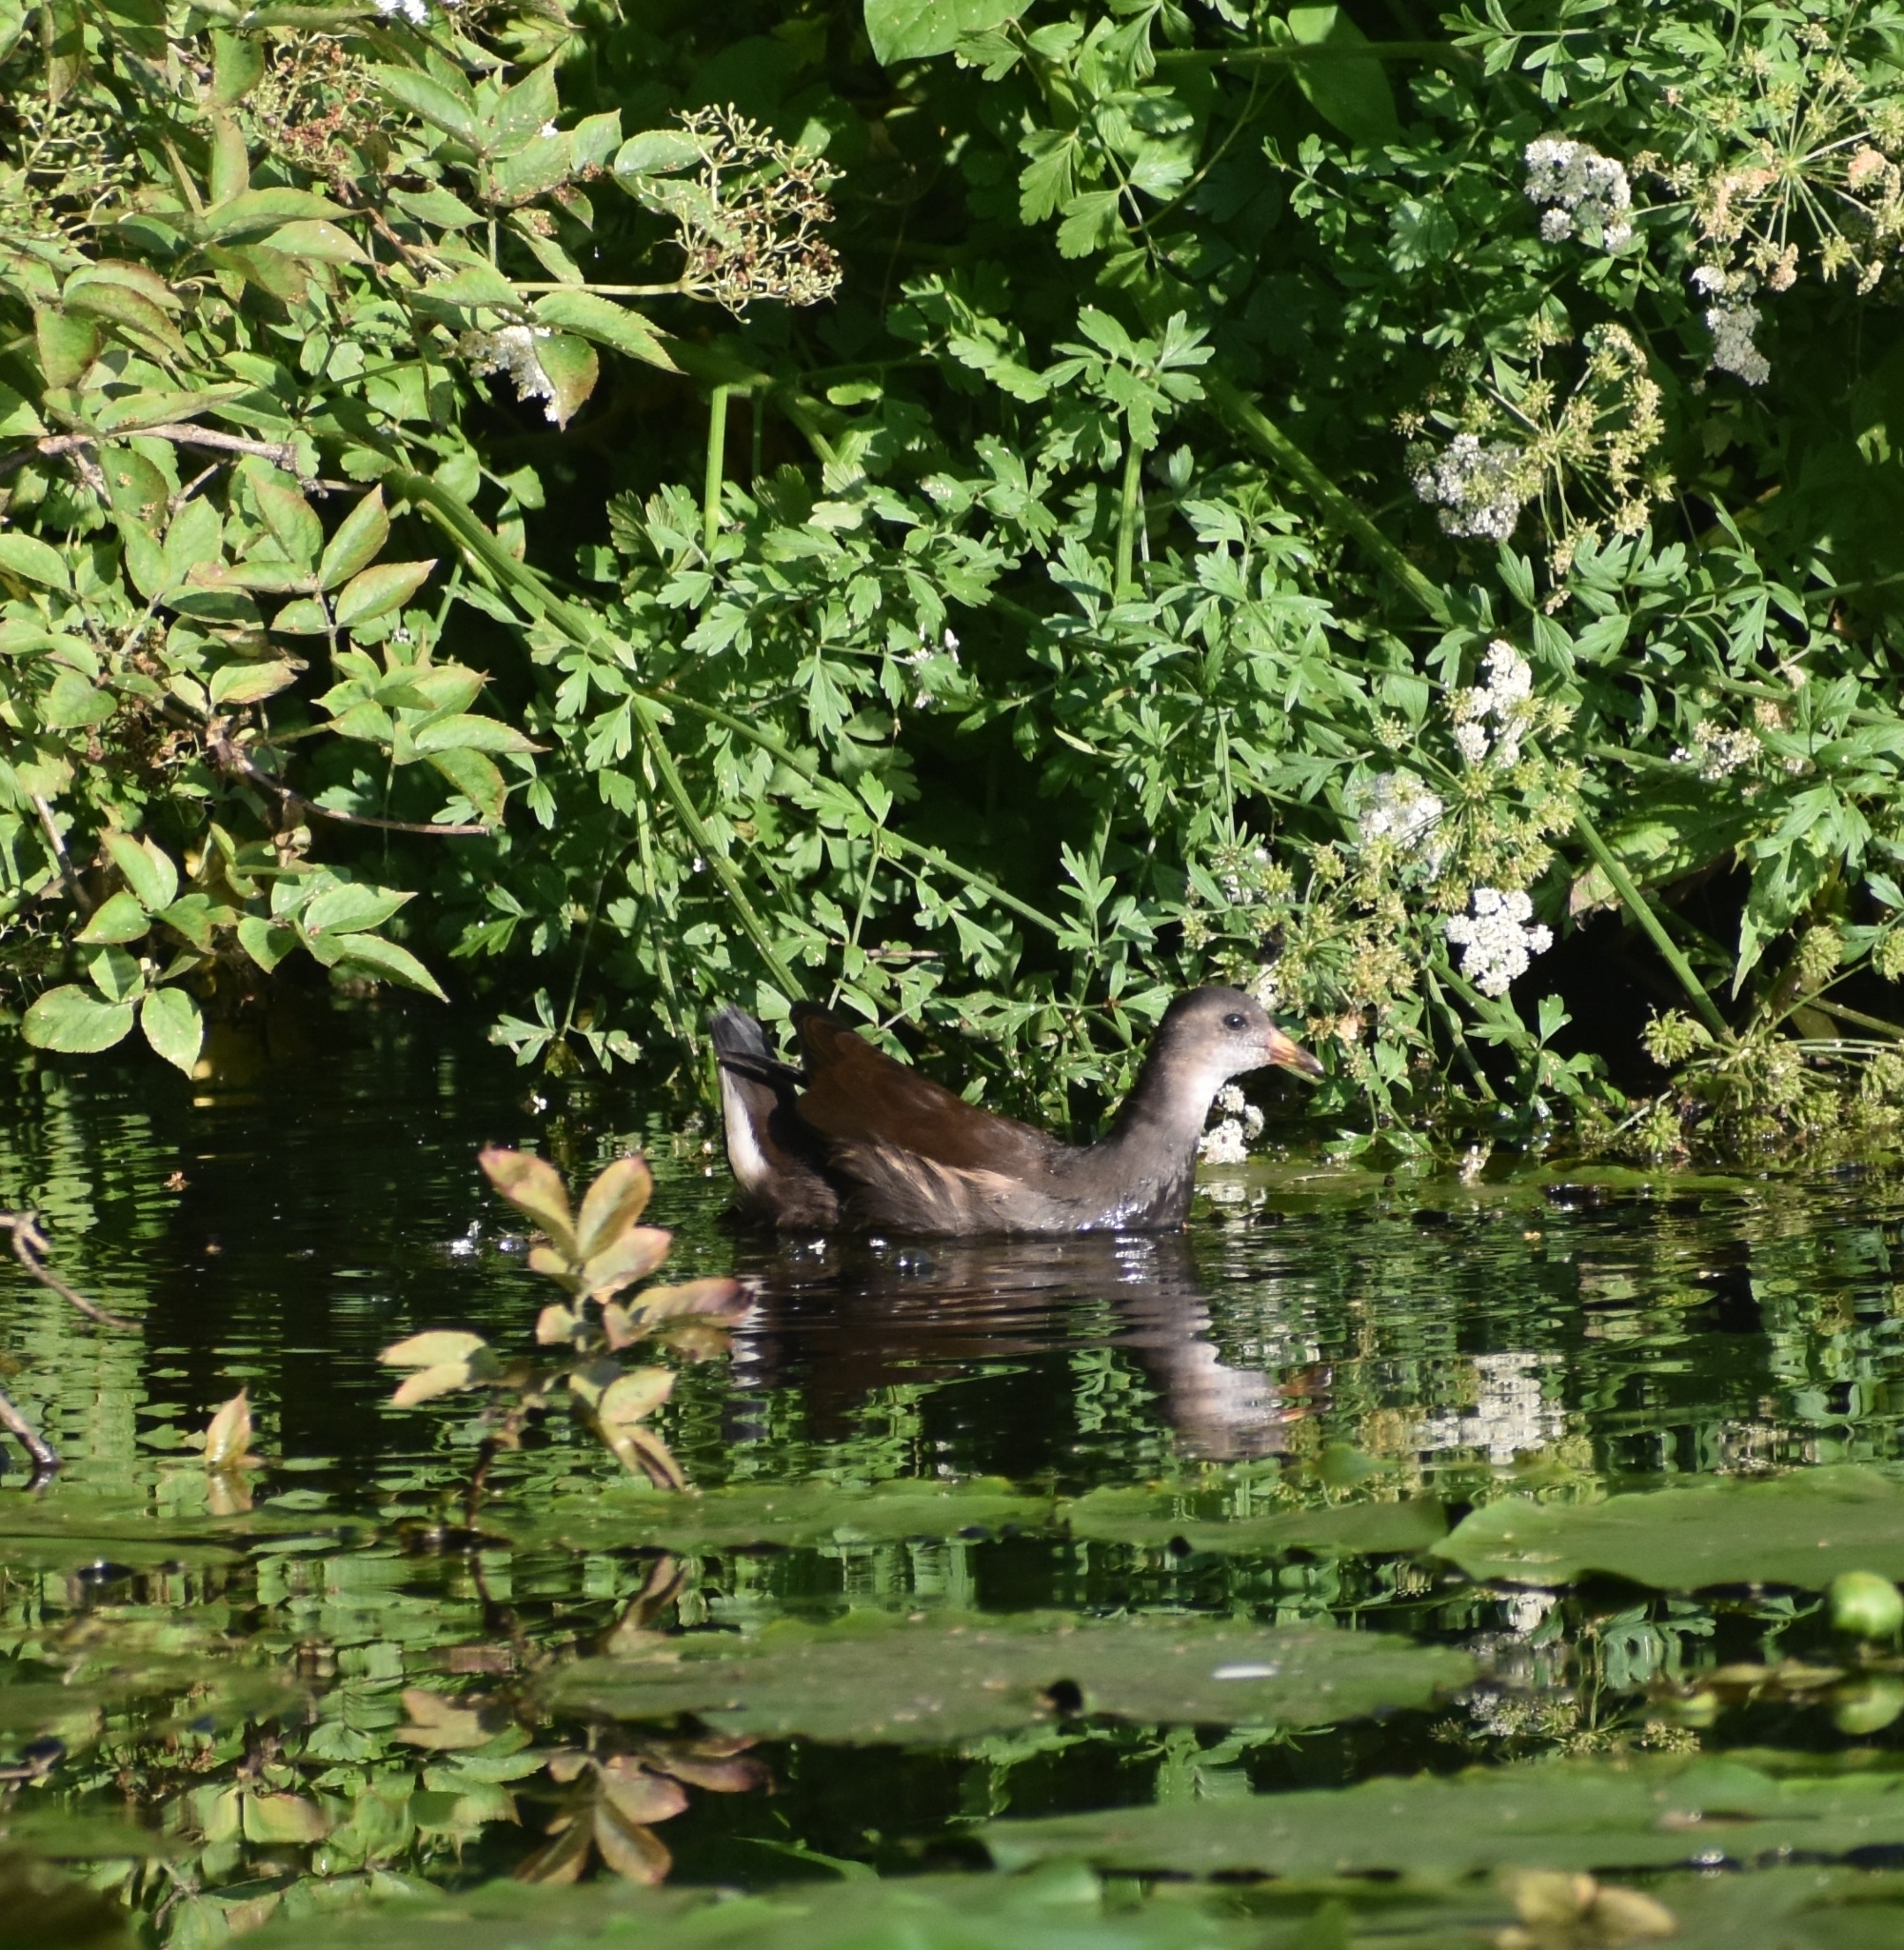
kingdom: Animalia
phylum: Chordata
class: Aves
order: Gruiformes
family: Rallidae
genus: Gallinula
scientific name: Gallinula chloropus
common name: Common moorhen
